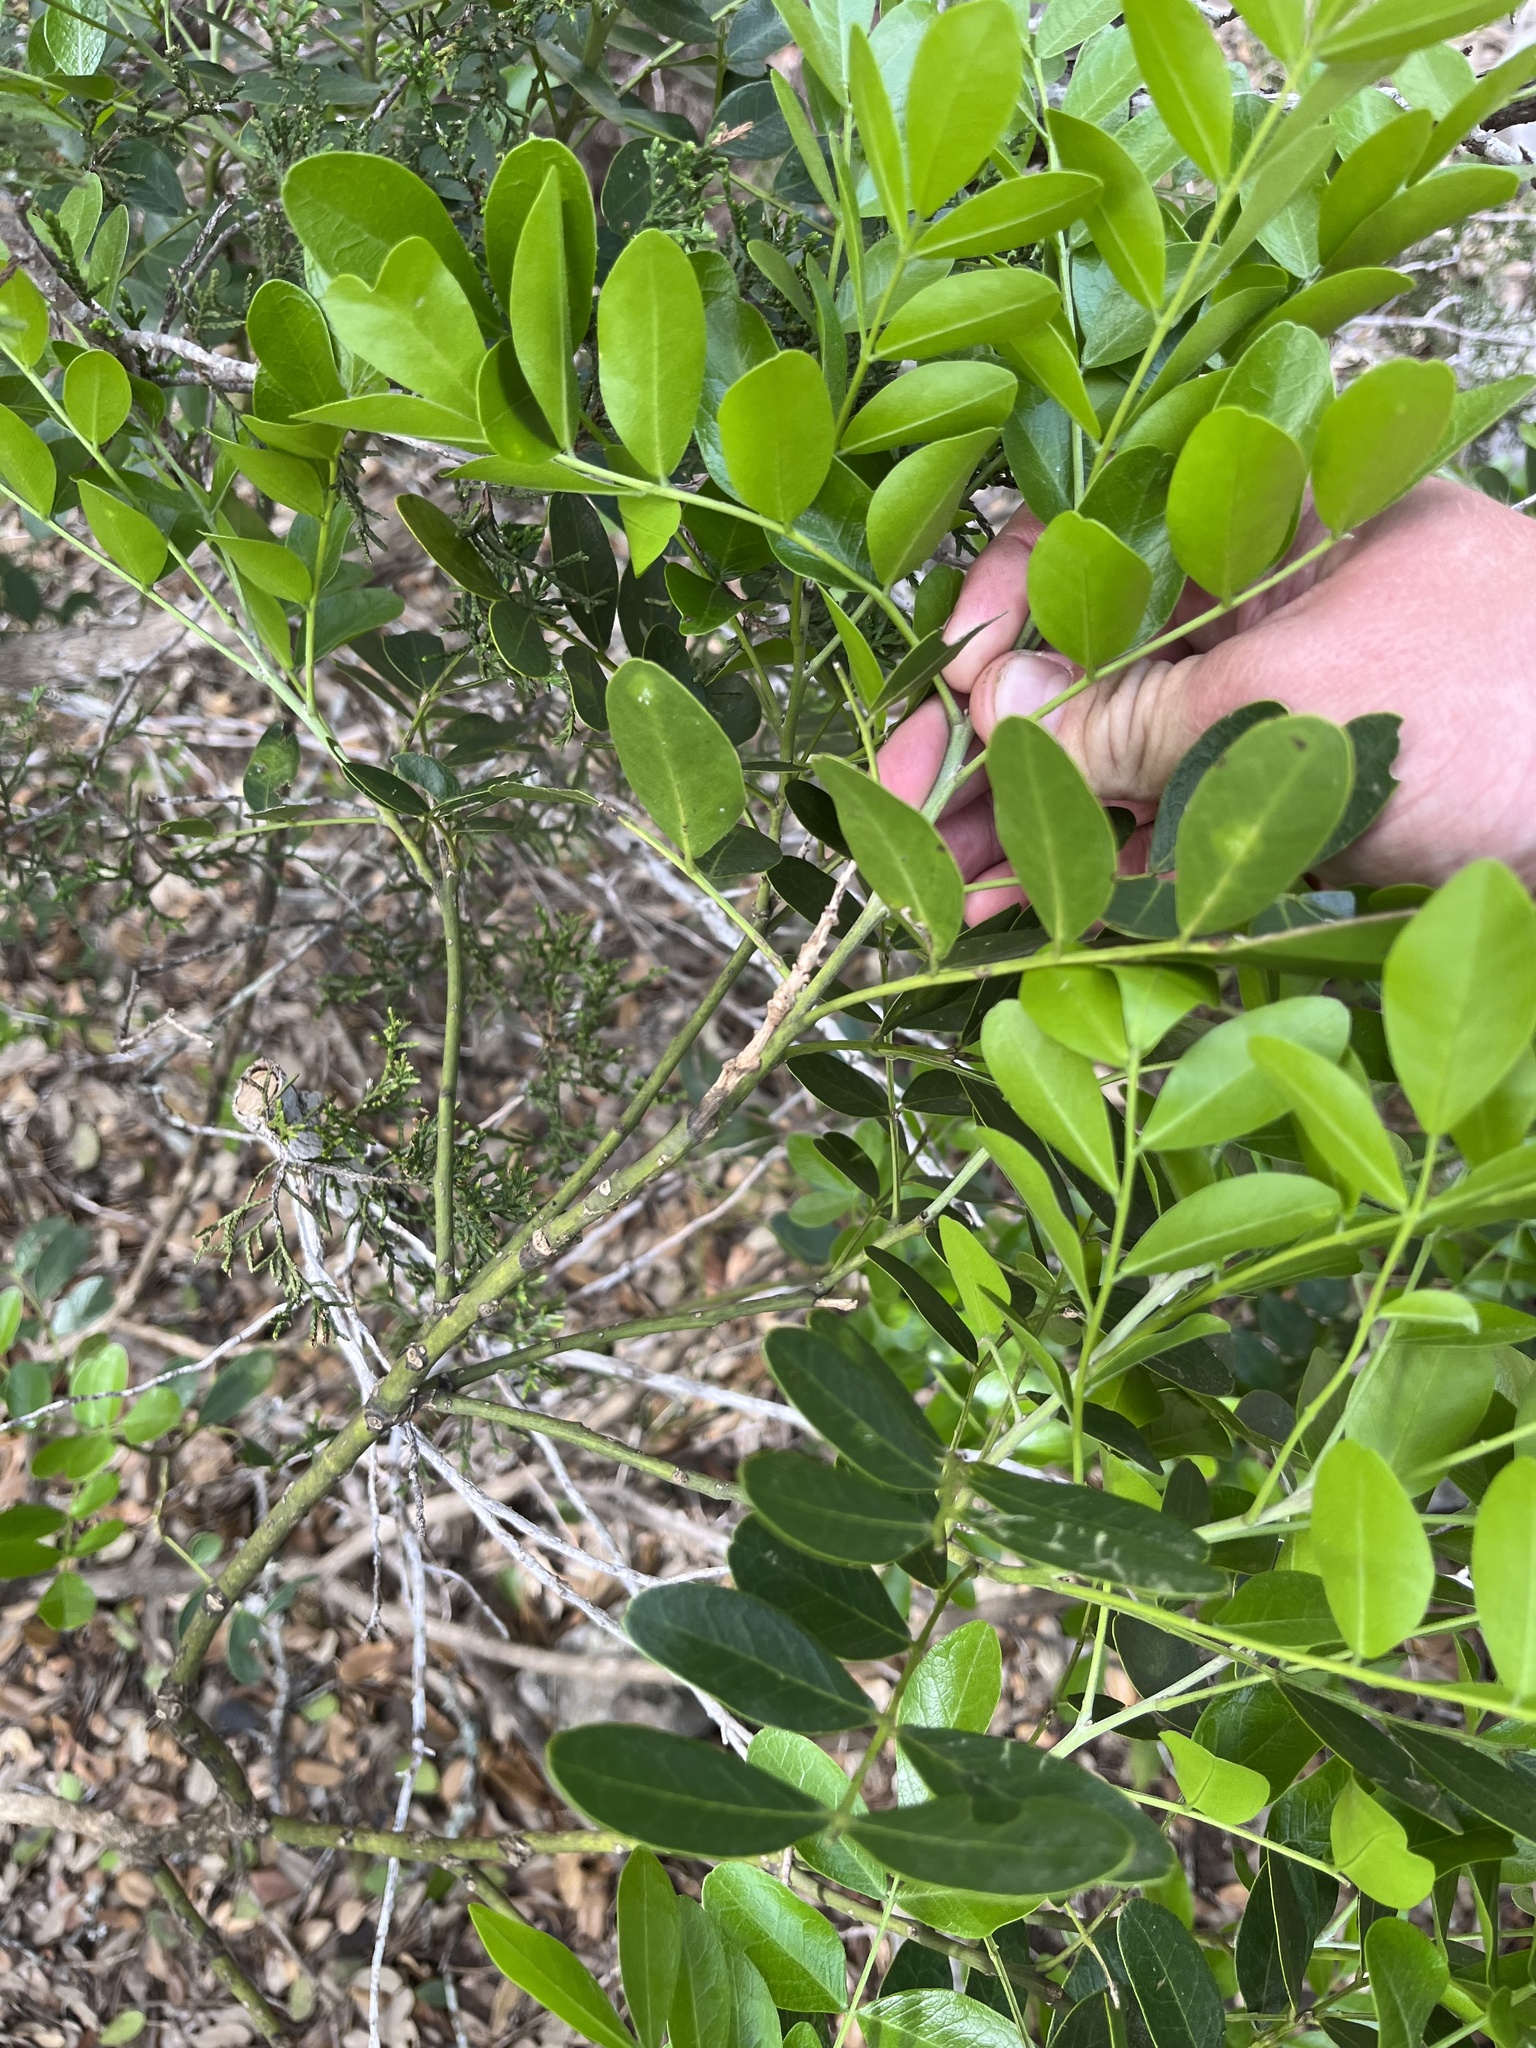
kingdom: Plantae
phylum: Tracheophyta
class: Magnoliopsida
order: Fabales
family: Fabaceae
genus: Dermatophyllum
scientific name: Dermatophyllum secundiflorum
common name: Texas-mountain-laurel
